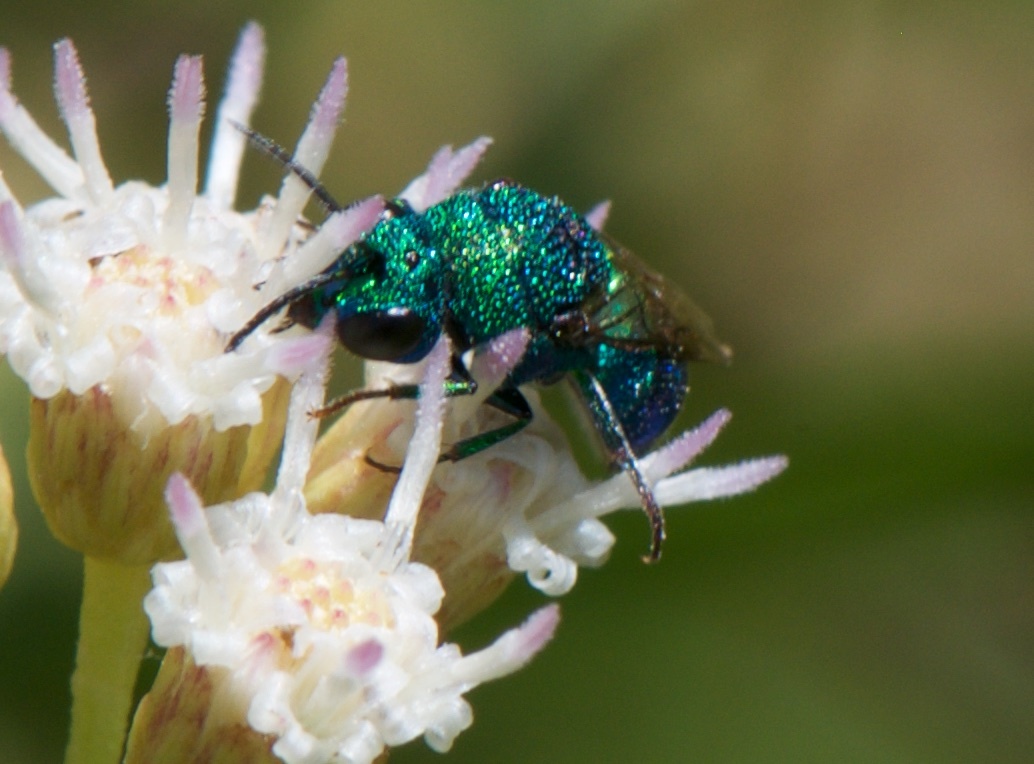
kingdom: Animalia
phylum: Arthropoda
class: Insecta
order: Hymenoptera
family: Chrysididae
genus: Holopyga
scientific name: Holopyga
